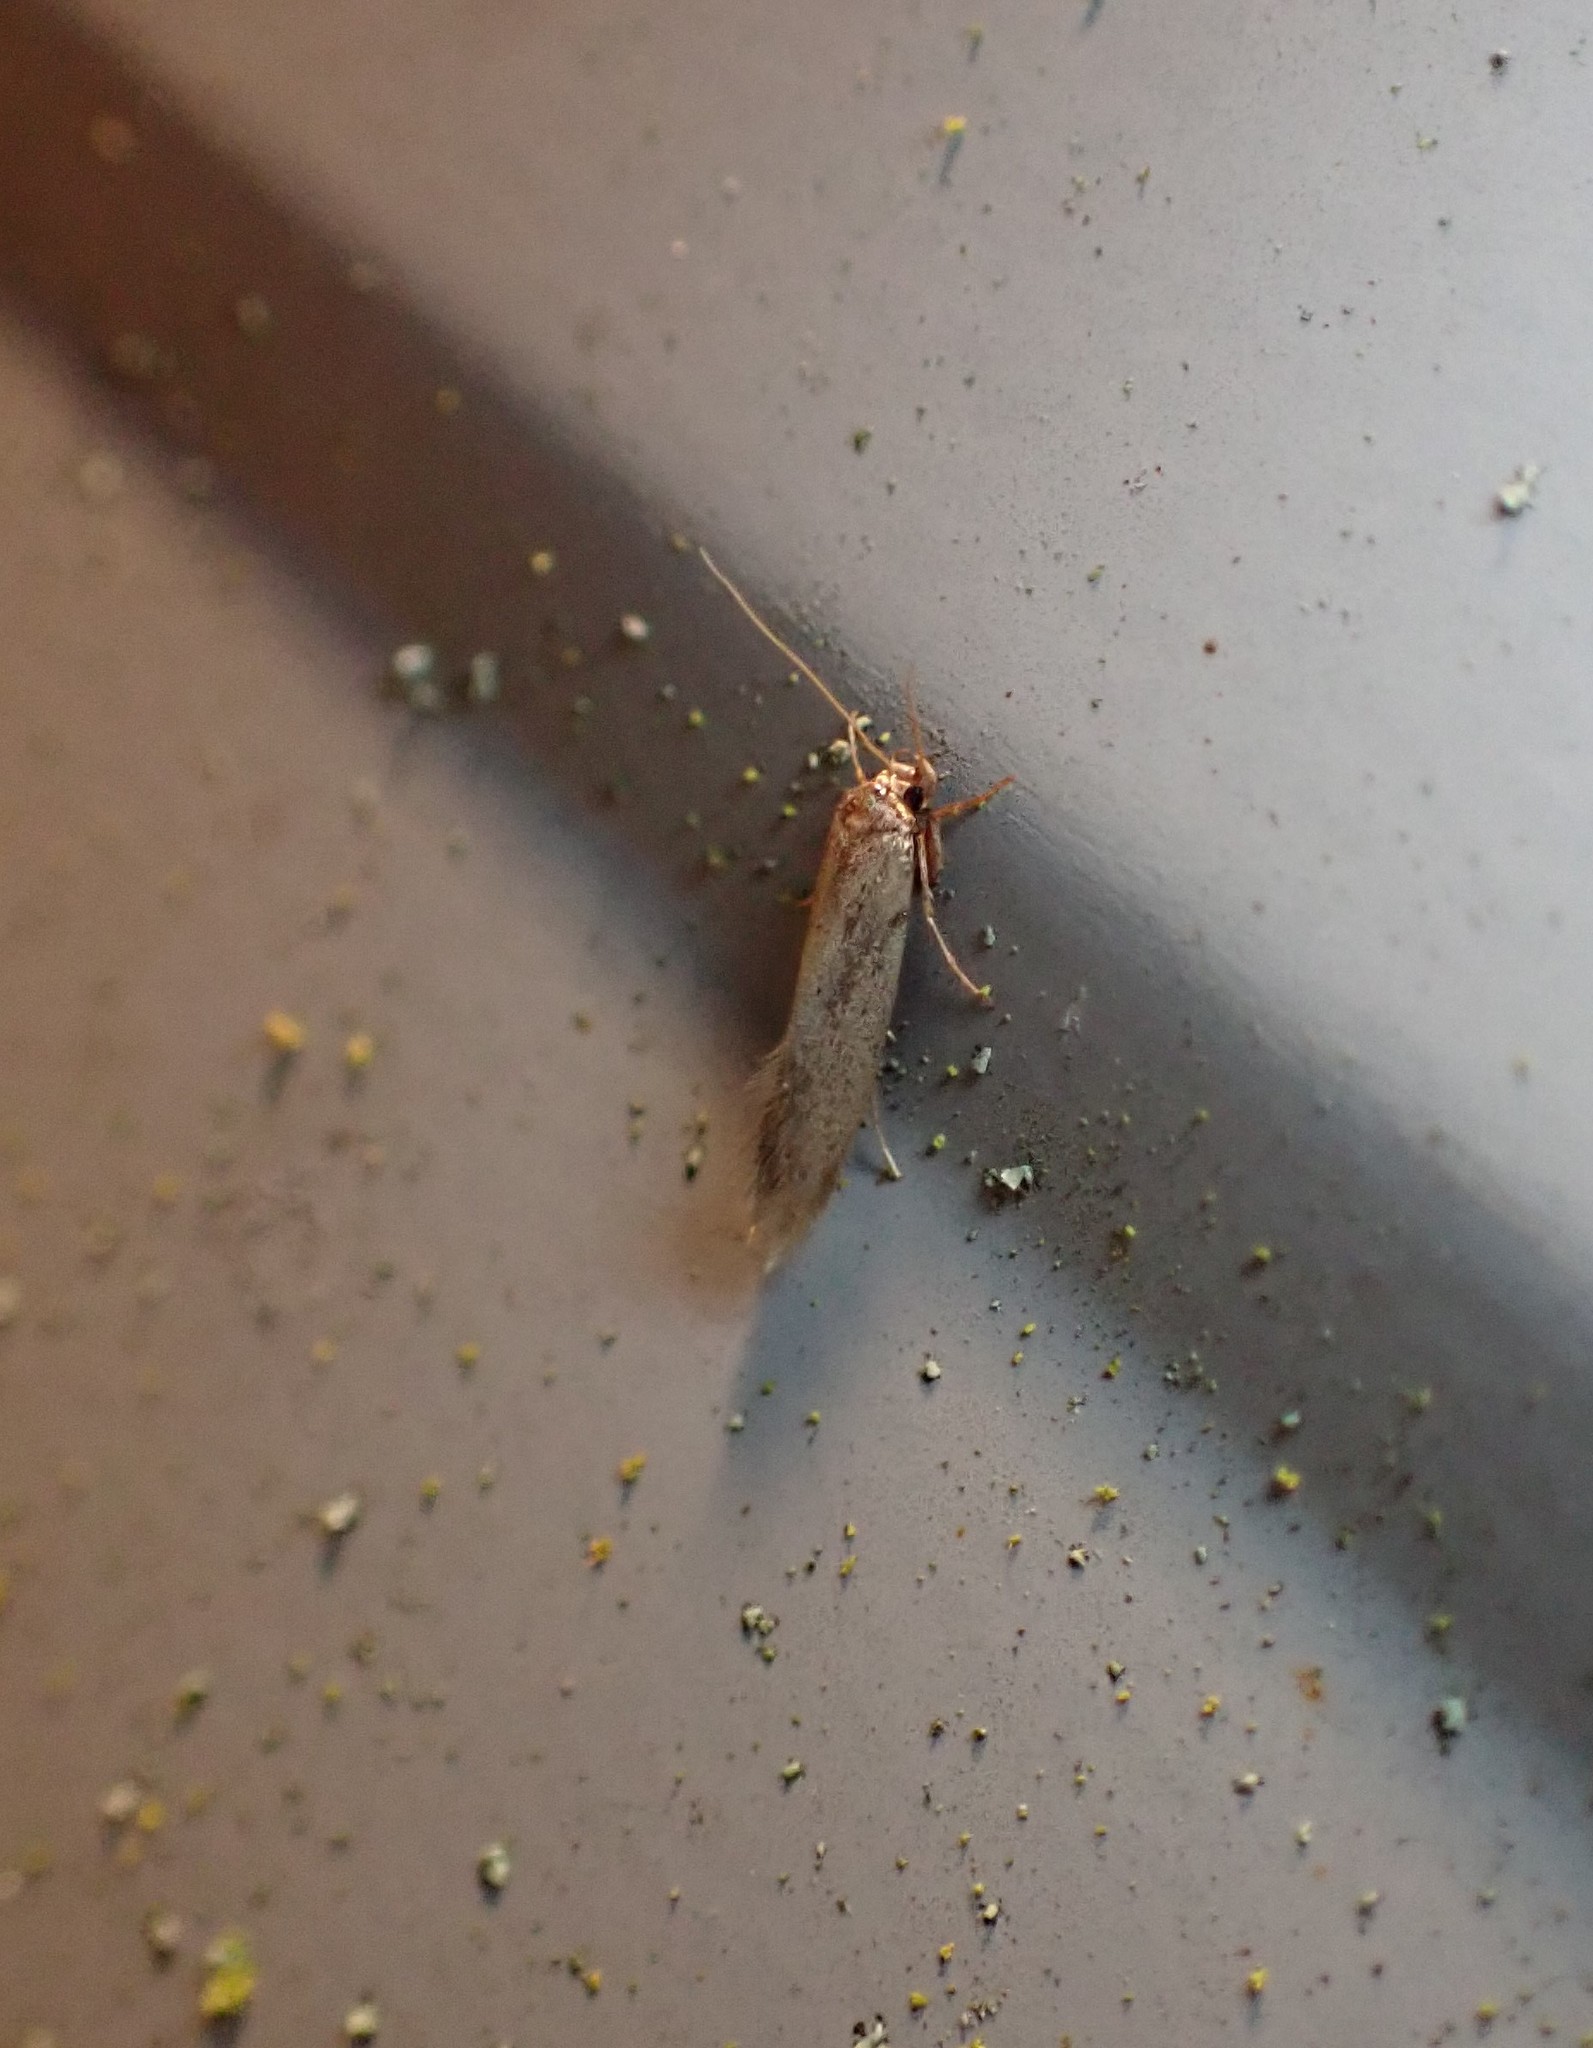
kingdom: Animalia
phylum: Arthropoda
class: Insecta
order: Lepidoptera
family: Tineidae
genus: Opogona
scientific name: Opogona omoscopa
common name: Moth
